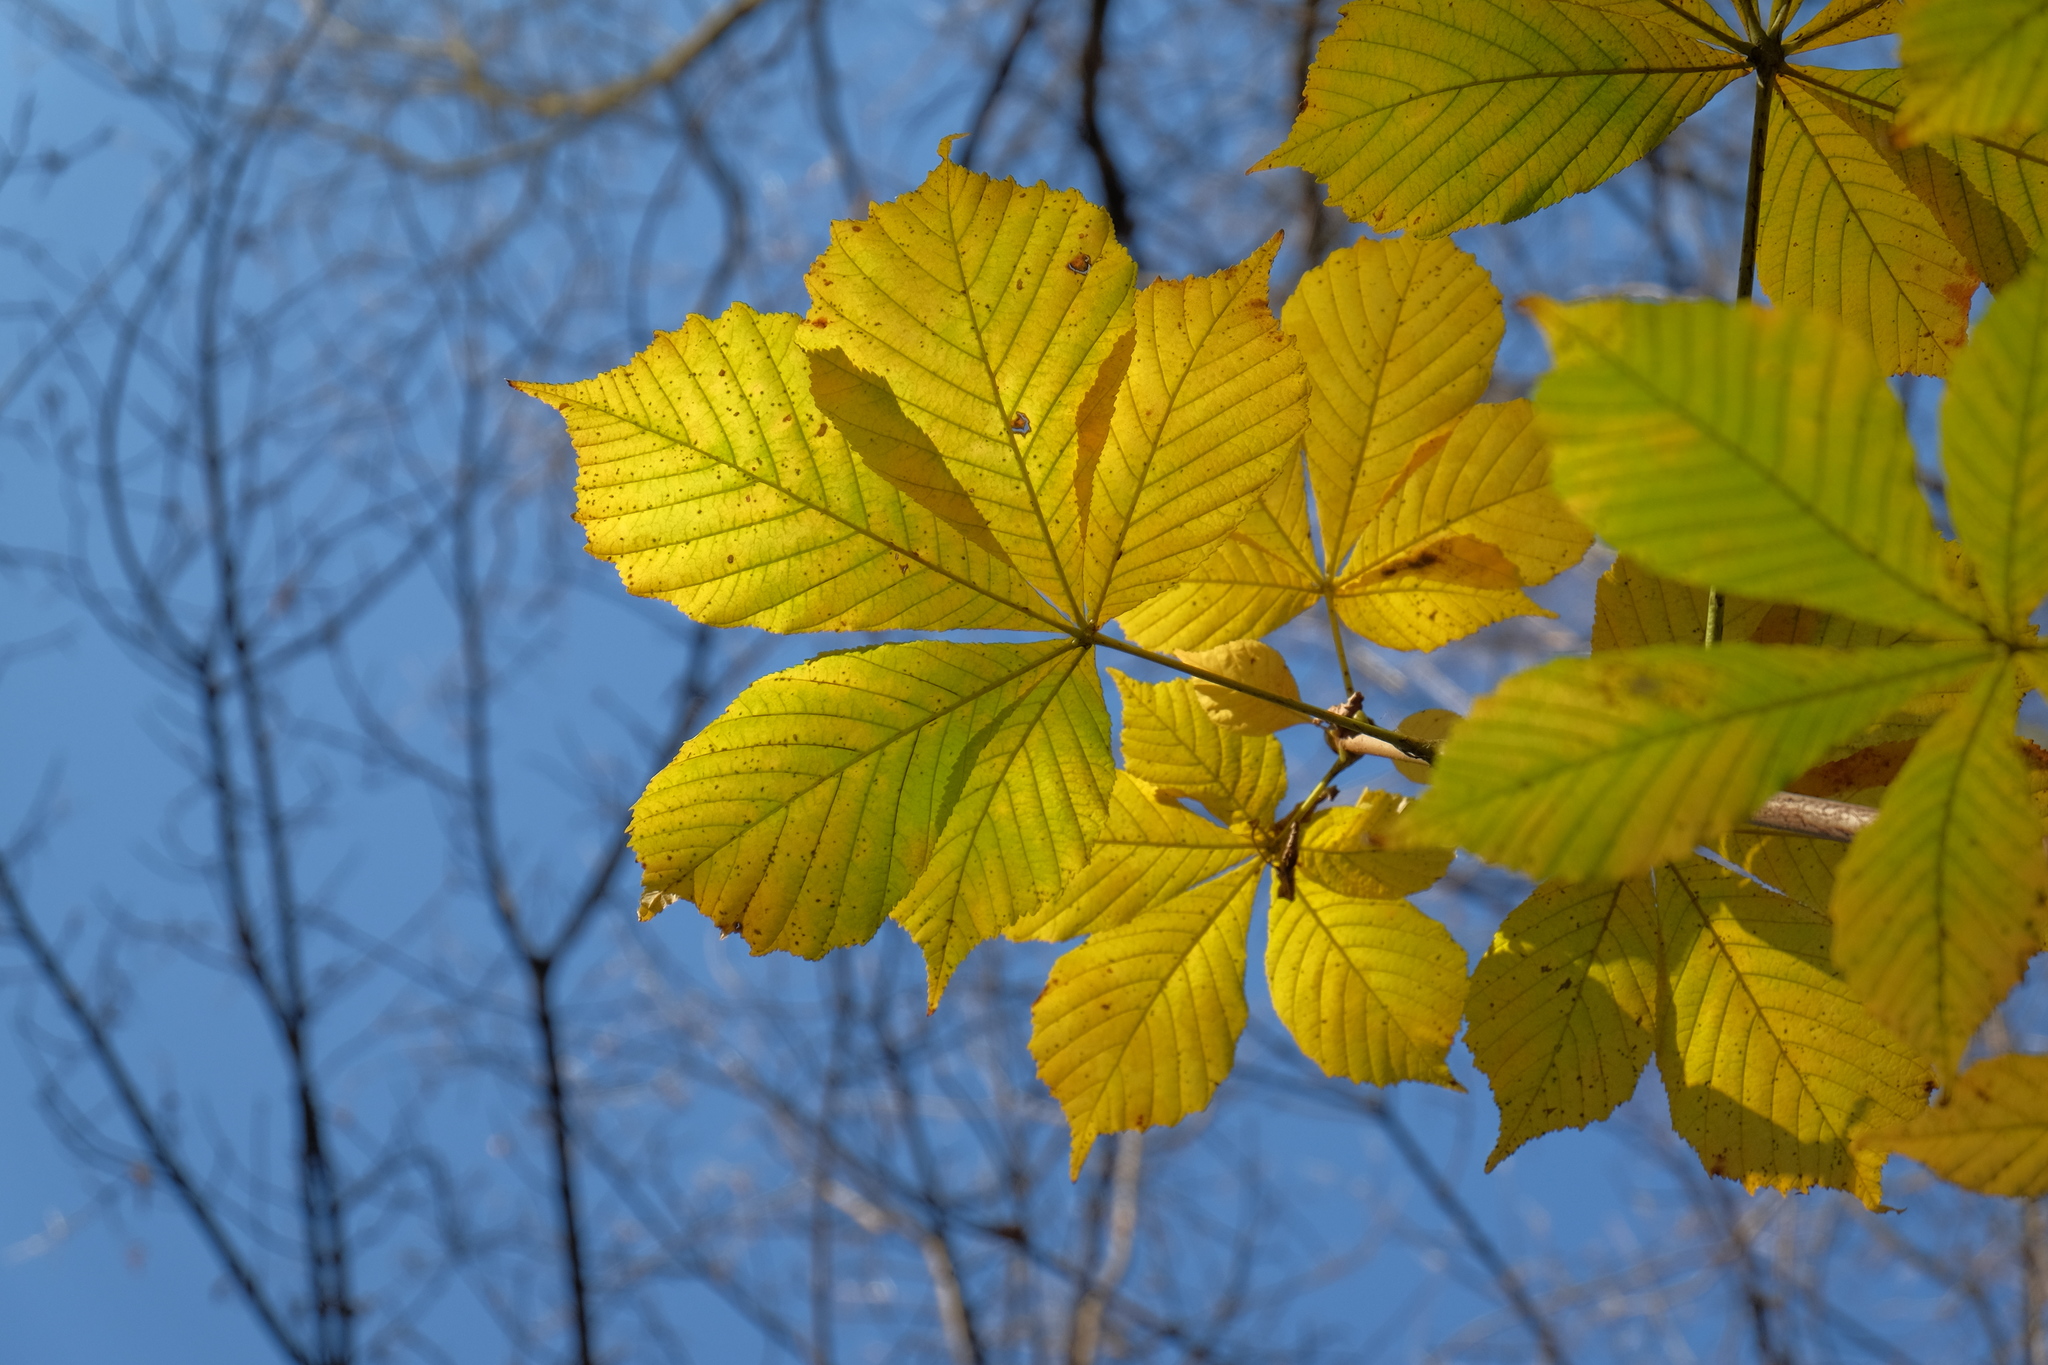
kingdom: Plantae
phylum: Tracheophyta
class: Magnoliopsida
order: Sapindales
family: Sapindaceae
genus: Aesculus
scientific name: Aesculus hippocastanum
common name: Horse-chestnut
